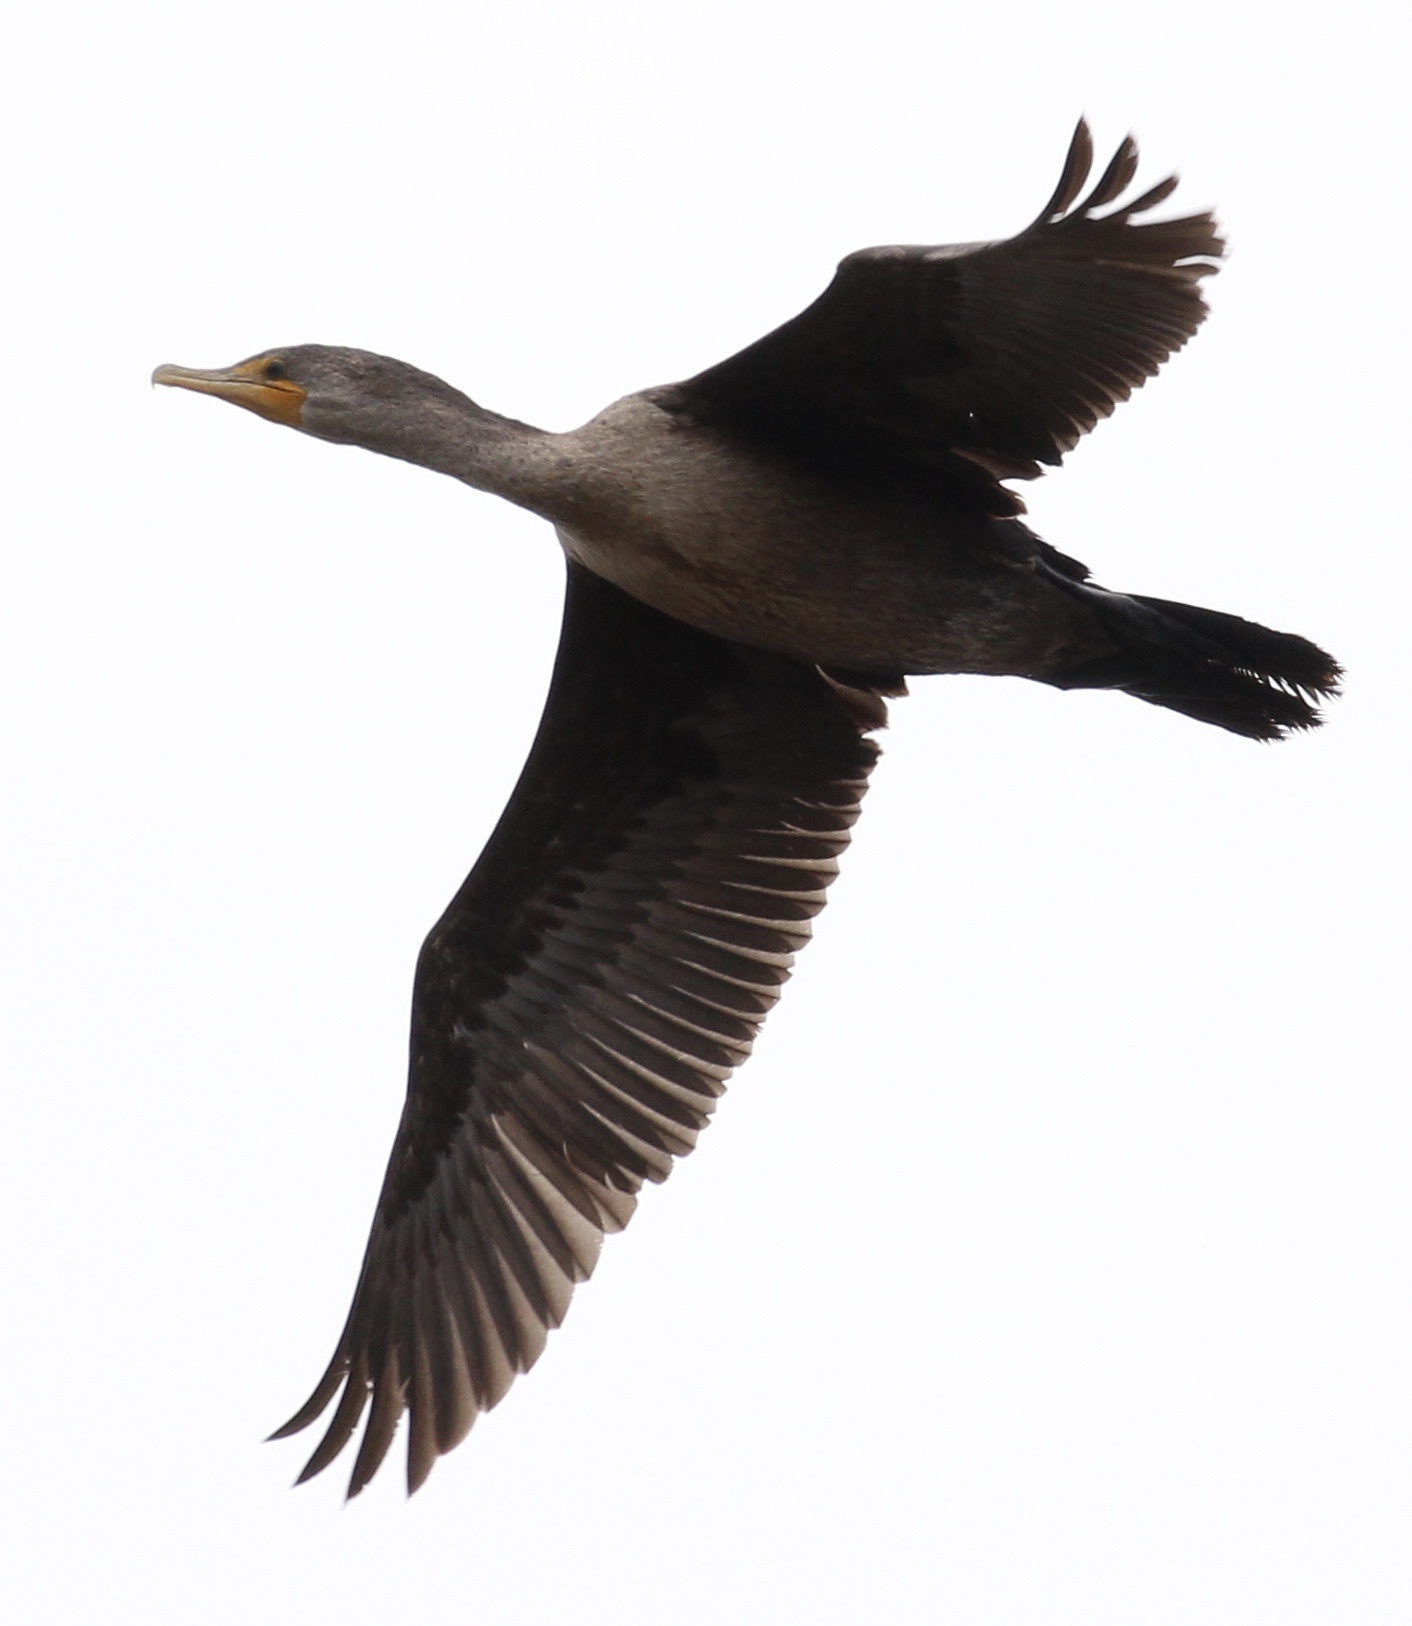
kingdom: Animalia
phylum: Chordata
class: Aves
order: Suliformes
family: Phalacrocoracidae
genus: Phalacrocorax
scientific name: Phalacrocorax auritus
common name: Double-crested cormorant
